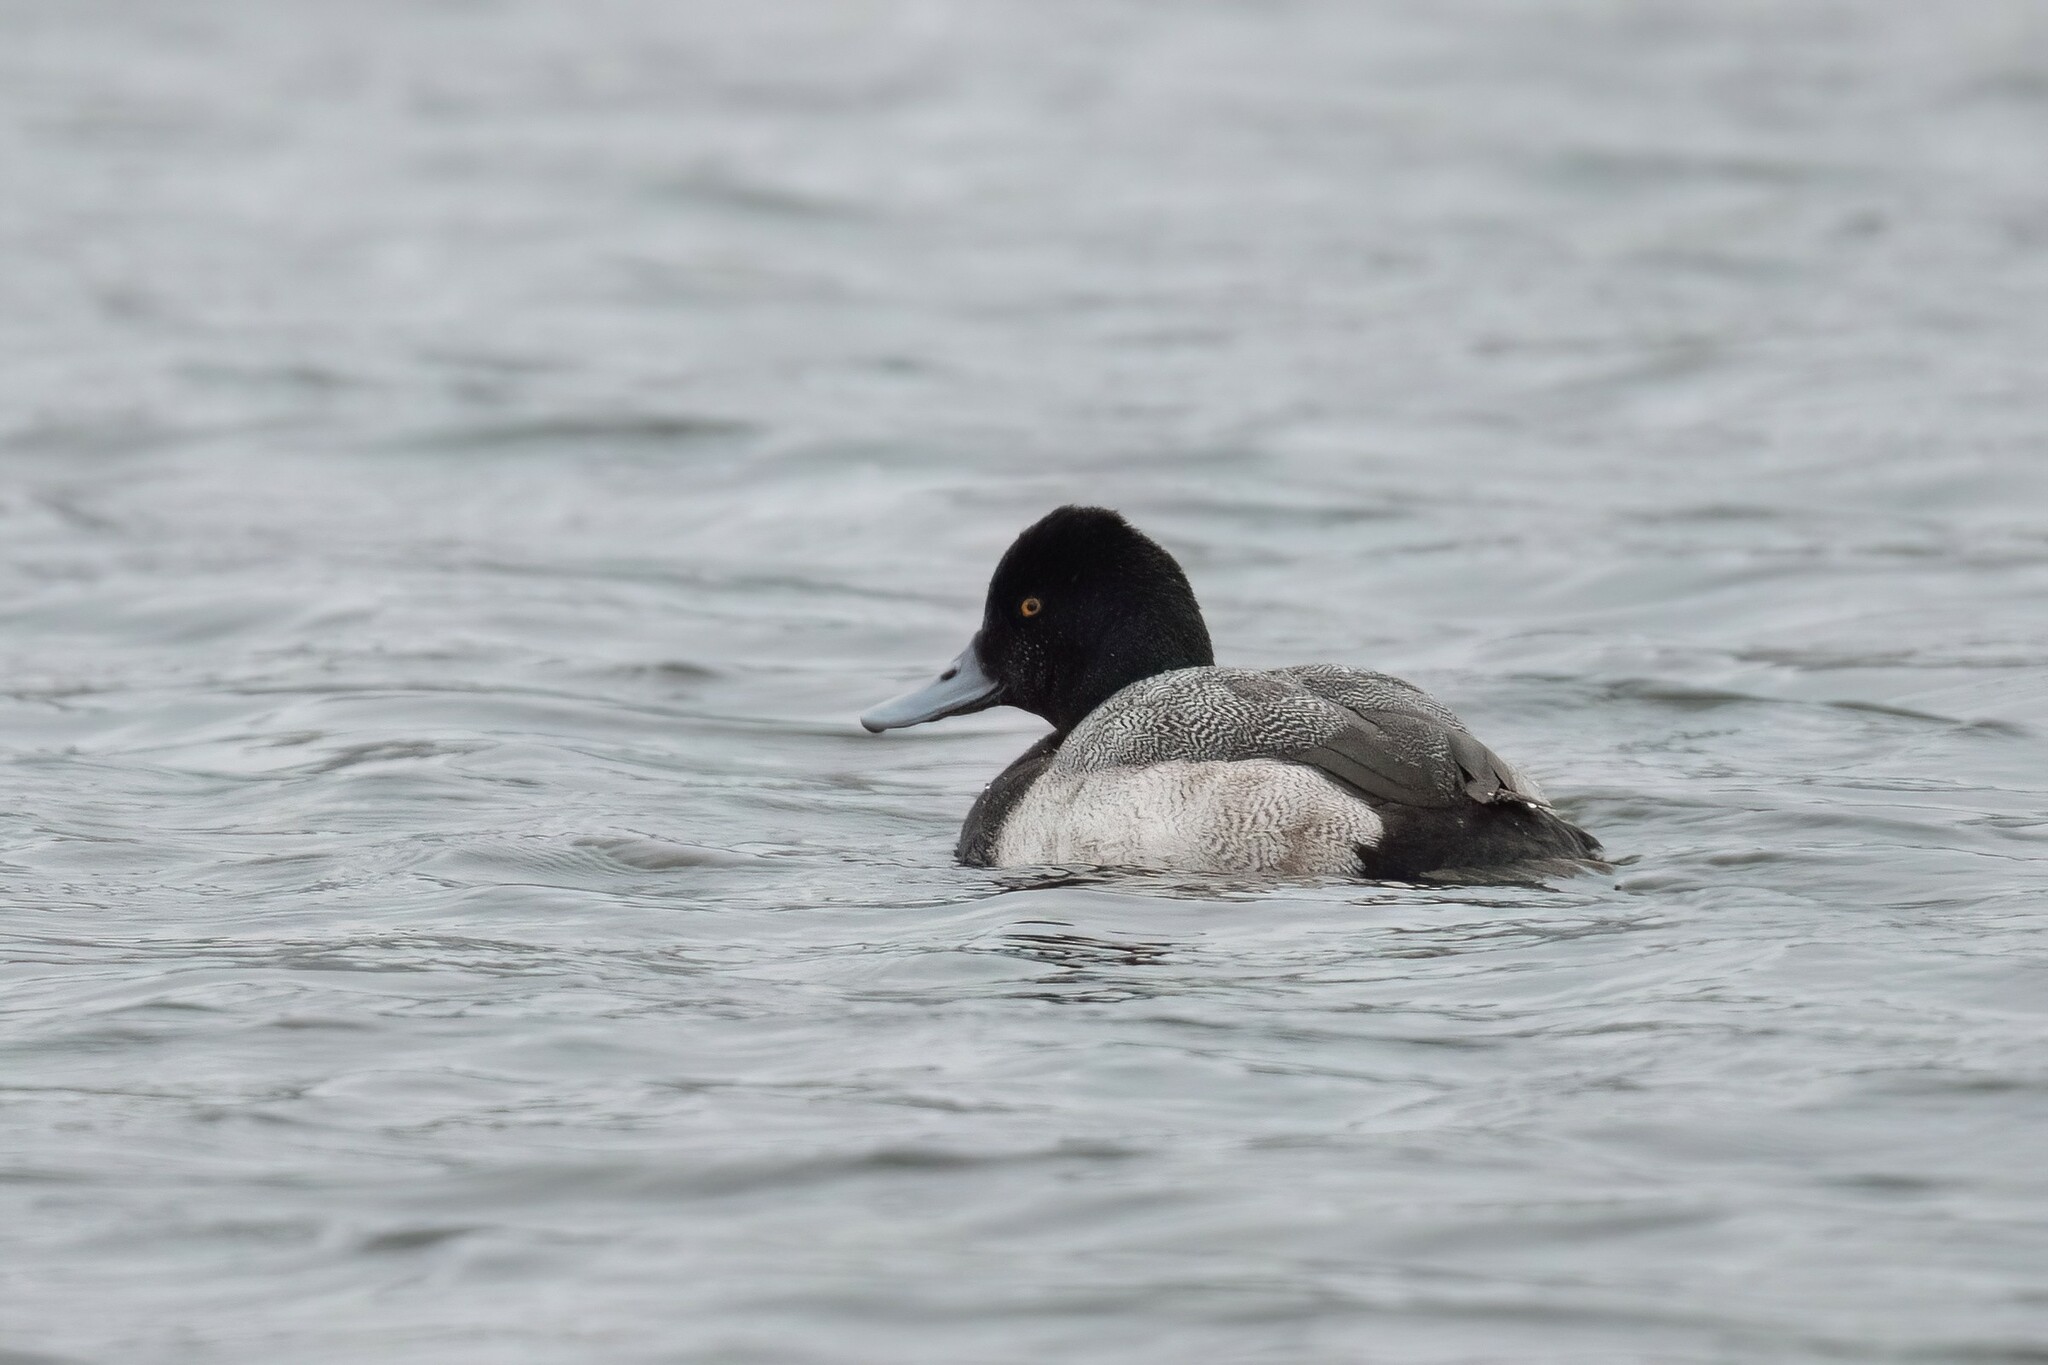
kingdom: Animalia
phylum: Chordata
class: Aves
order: Anseriformes
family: Anatidae
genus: Aythya
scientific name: Aythya affinis
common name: Lesser scaup
